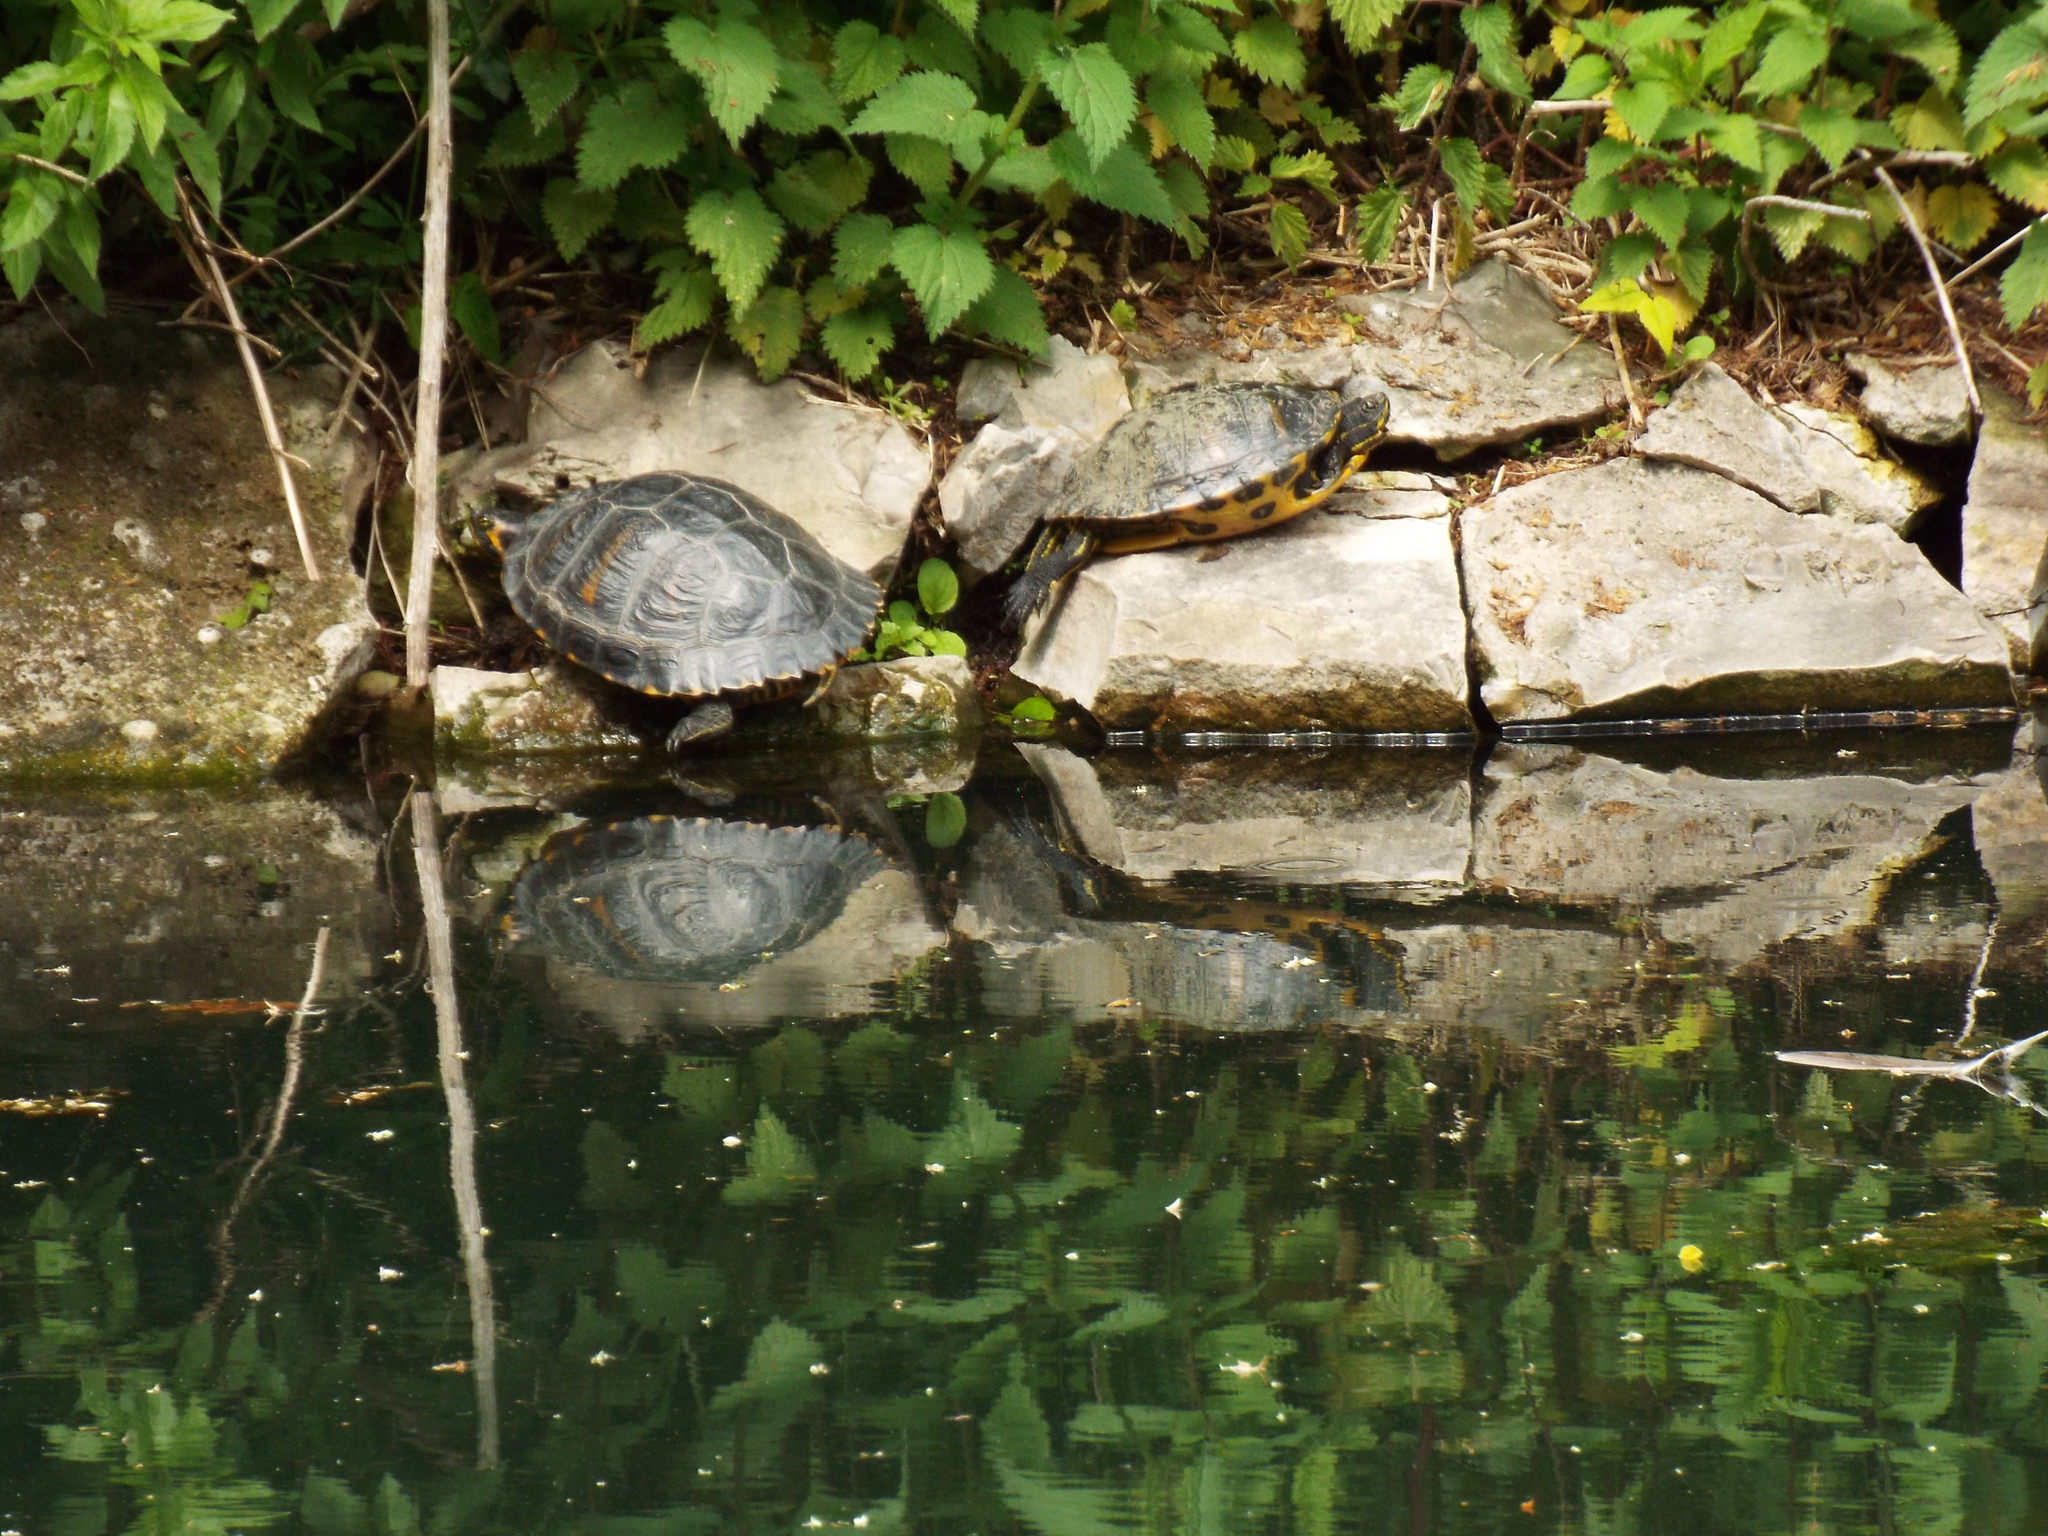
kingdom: Animalia
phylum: Chordata
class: Testudines
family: Emydidae
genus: Trachemys
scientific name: Trachemys scripta
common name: Slider
